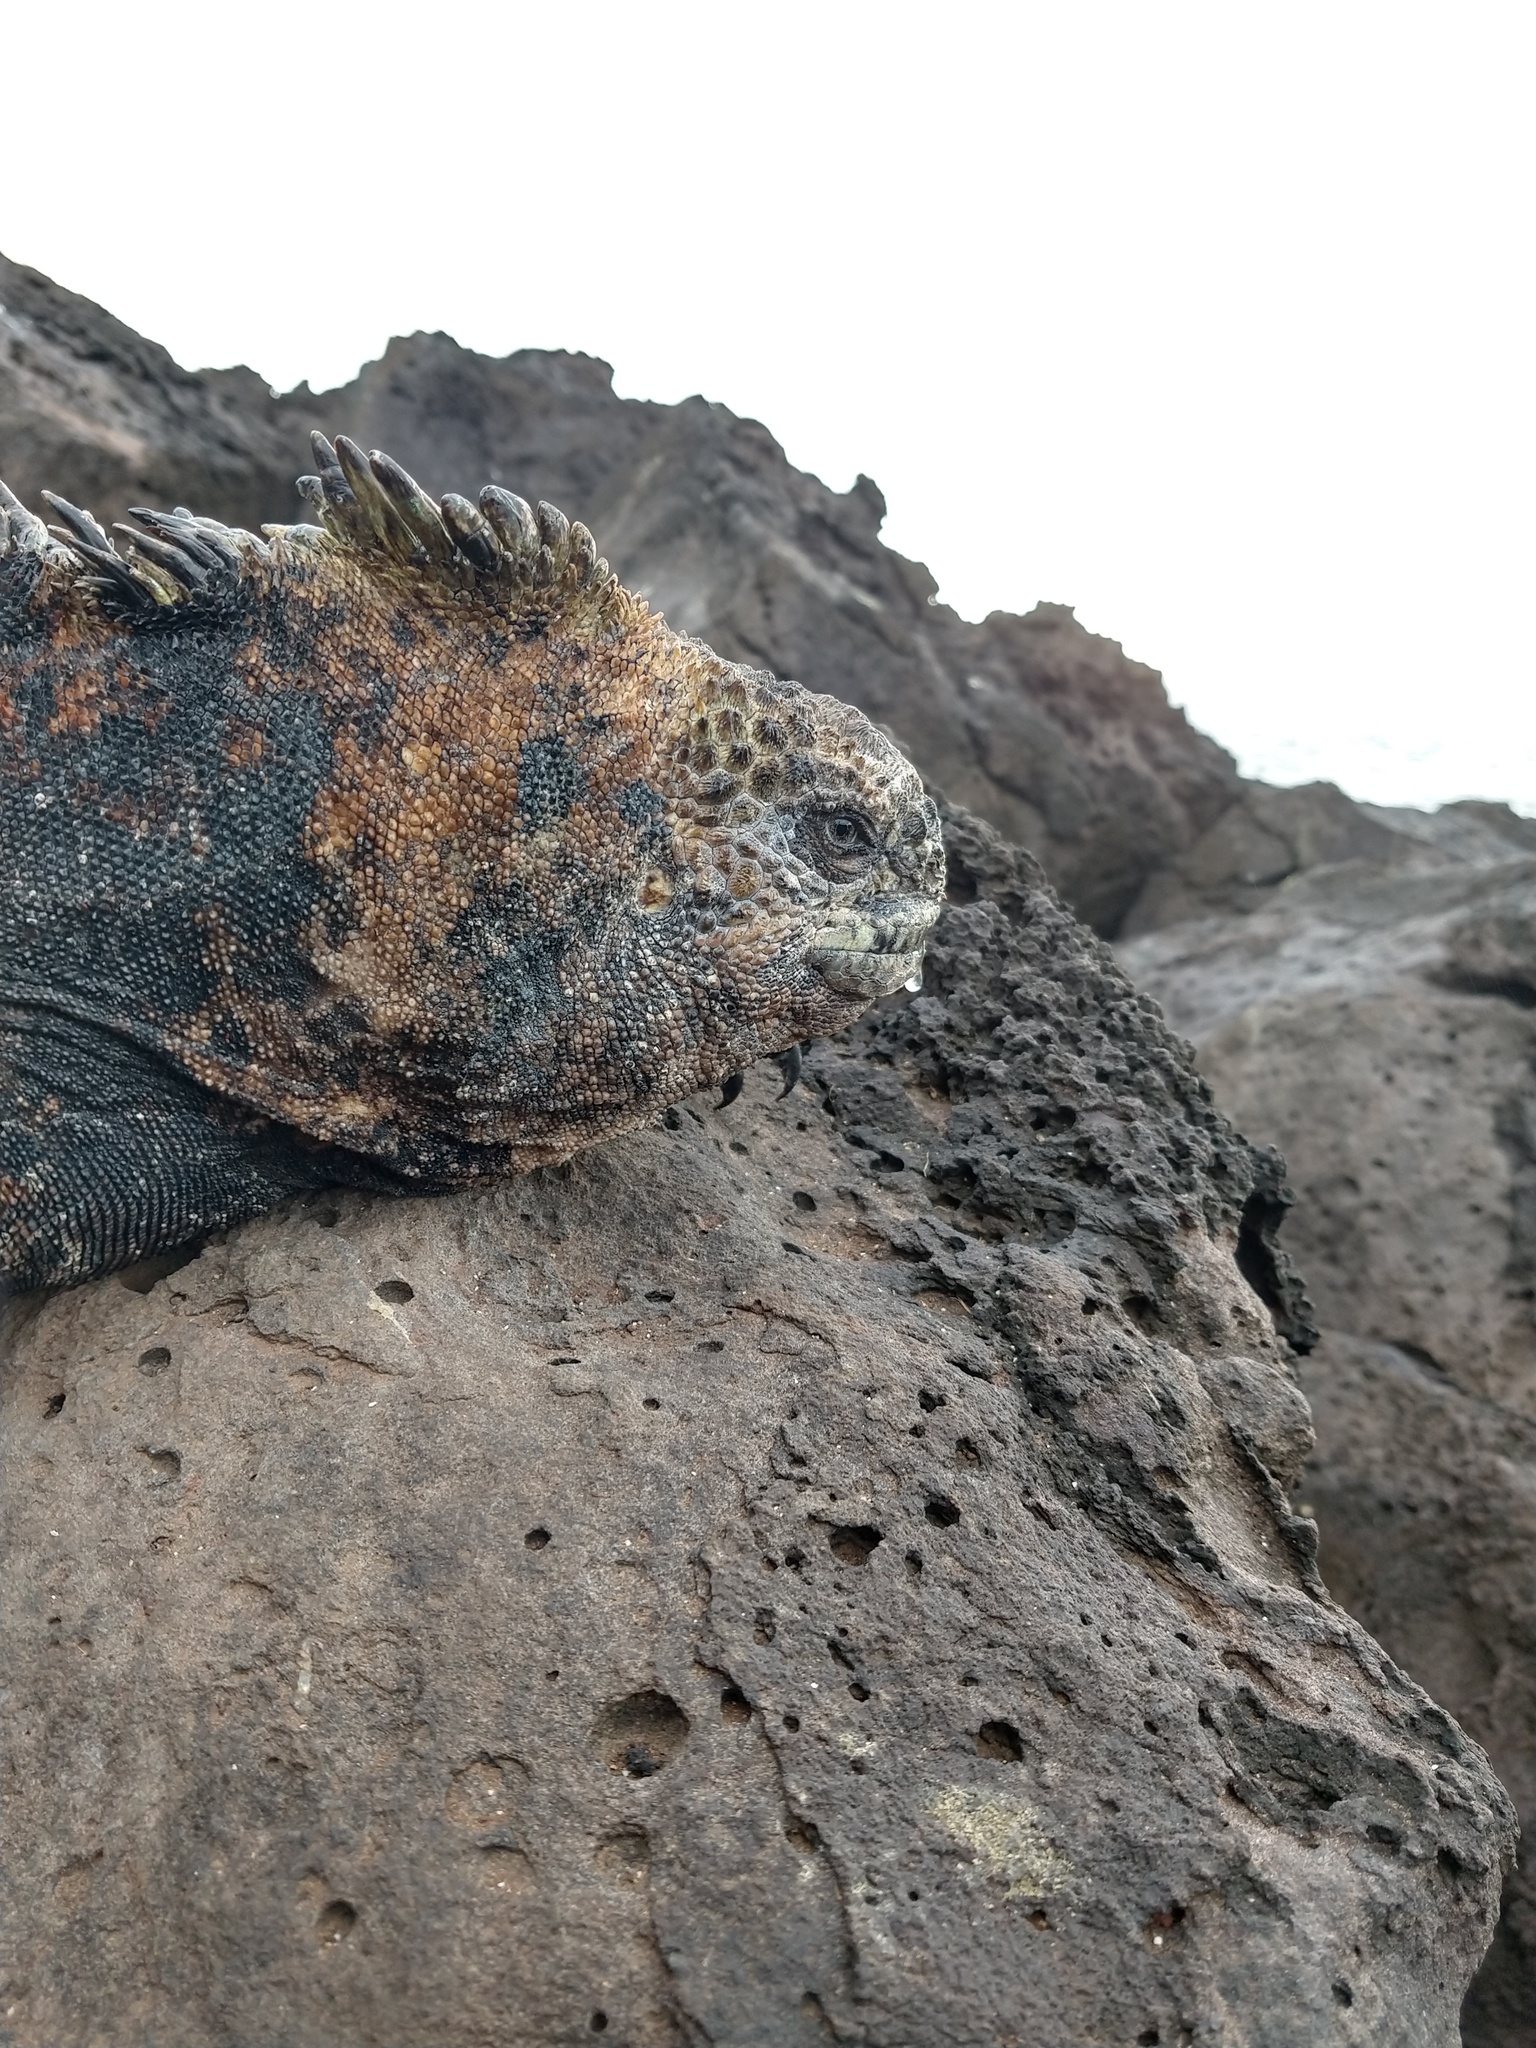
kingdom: Animalia
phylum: Chordata
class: Squamata
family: Iguanidae
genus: Amblyrhynchus
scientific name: Amblyrhynchus cristatus
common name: Marine iguana
